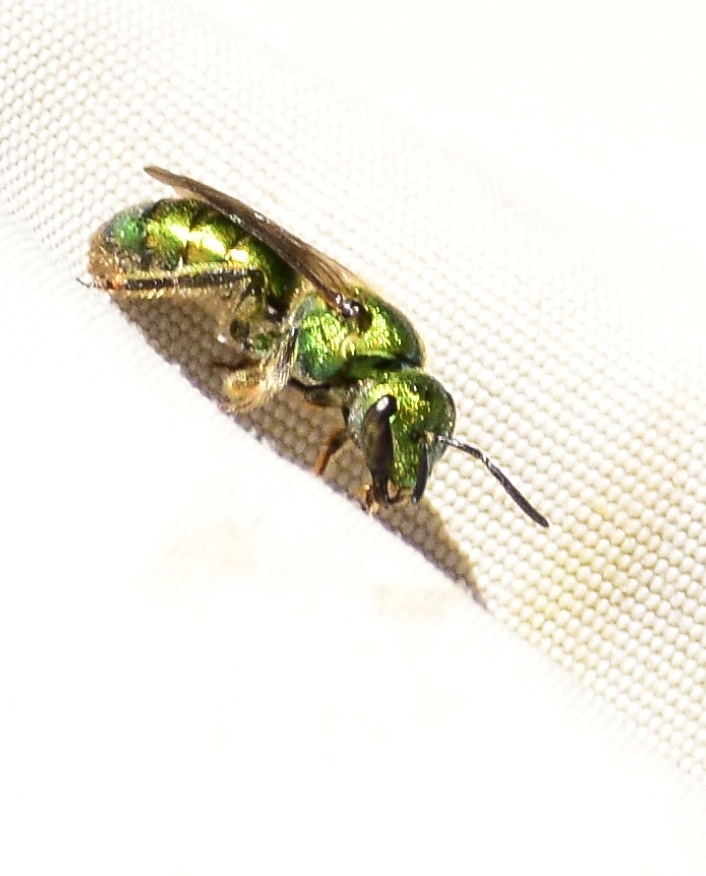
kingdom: Animalia
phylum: Arthropoda
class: Insecta
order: Hymenoptera
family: Halictidae
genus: Augochlora
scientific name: Augochlora pura
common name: Pure green sweat bee
